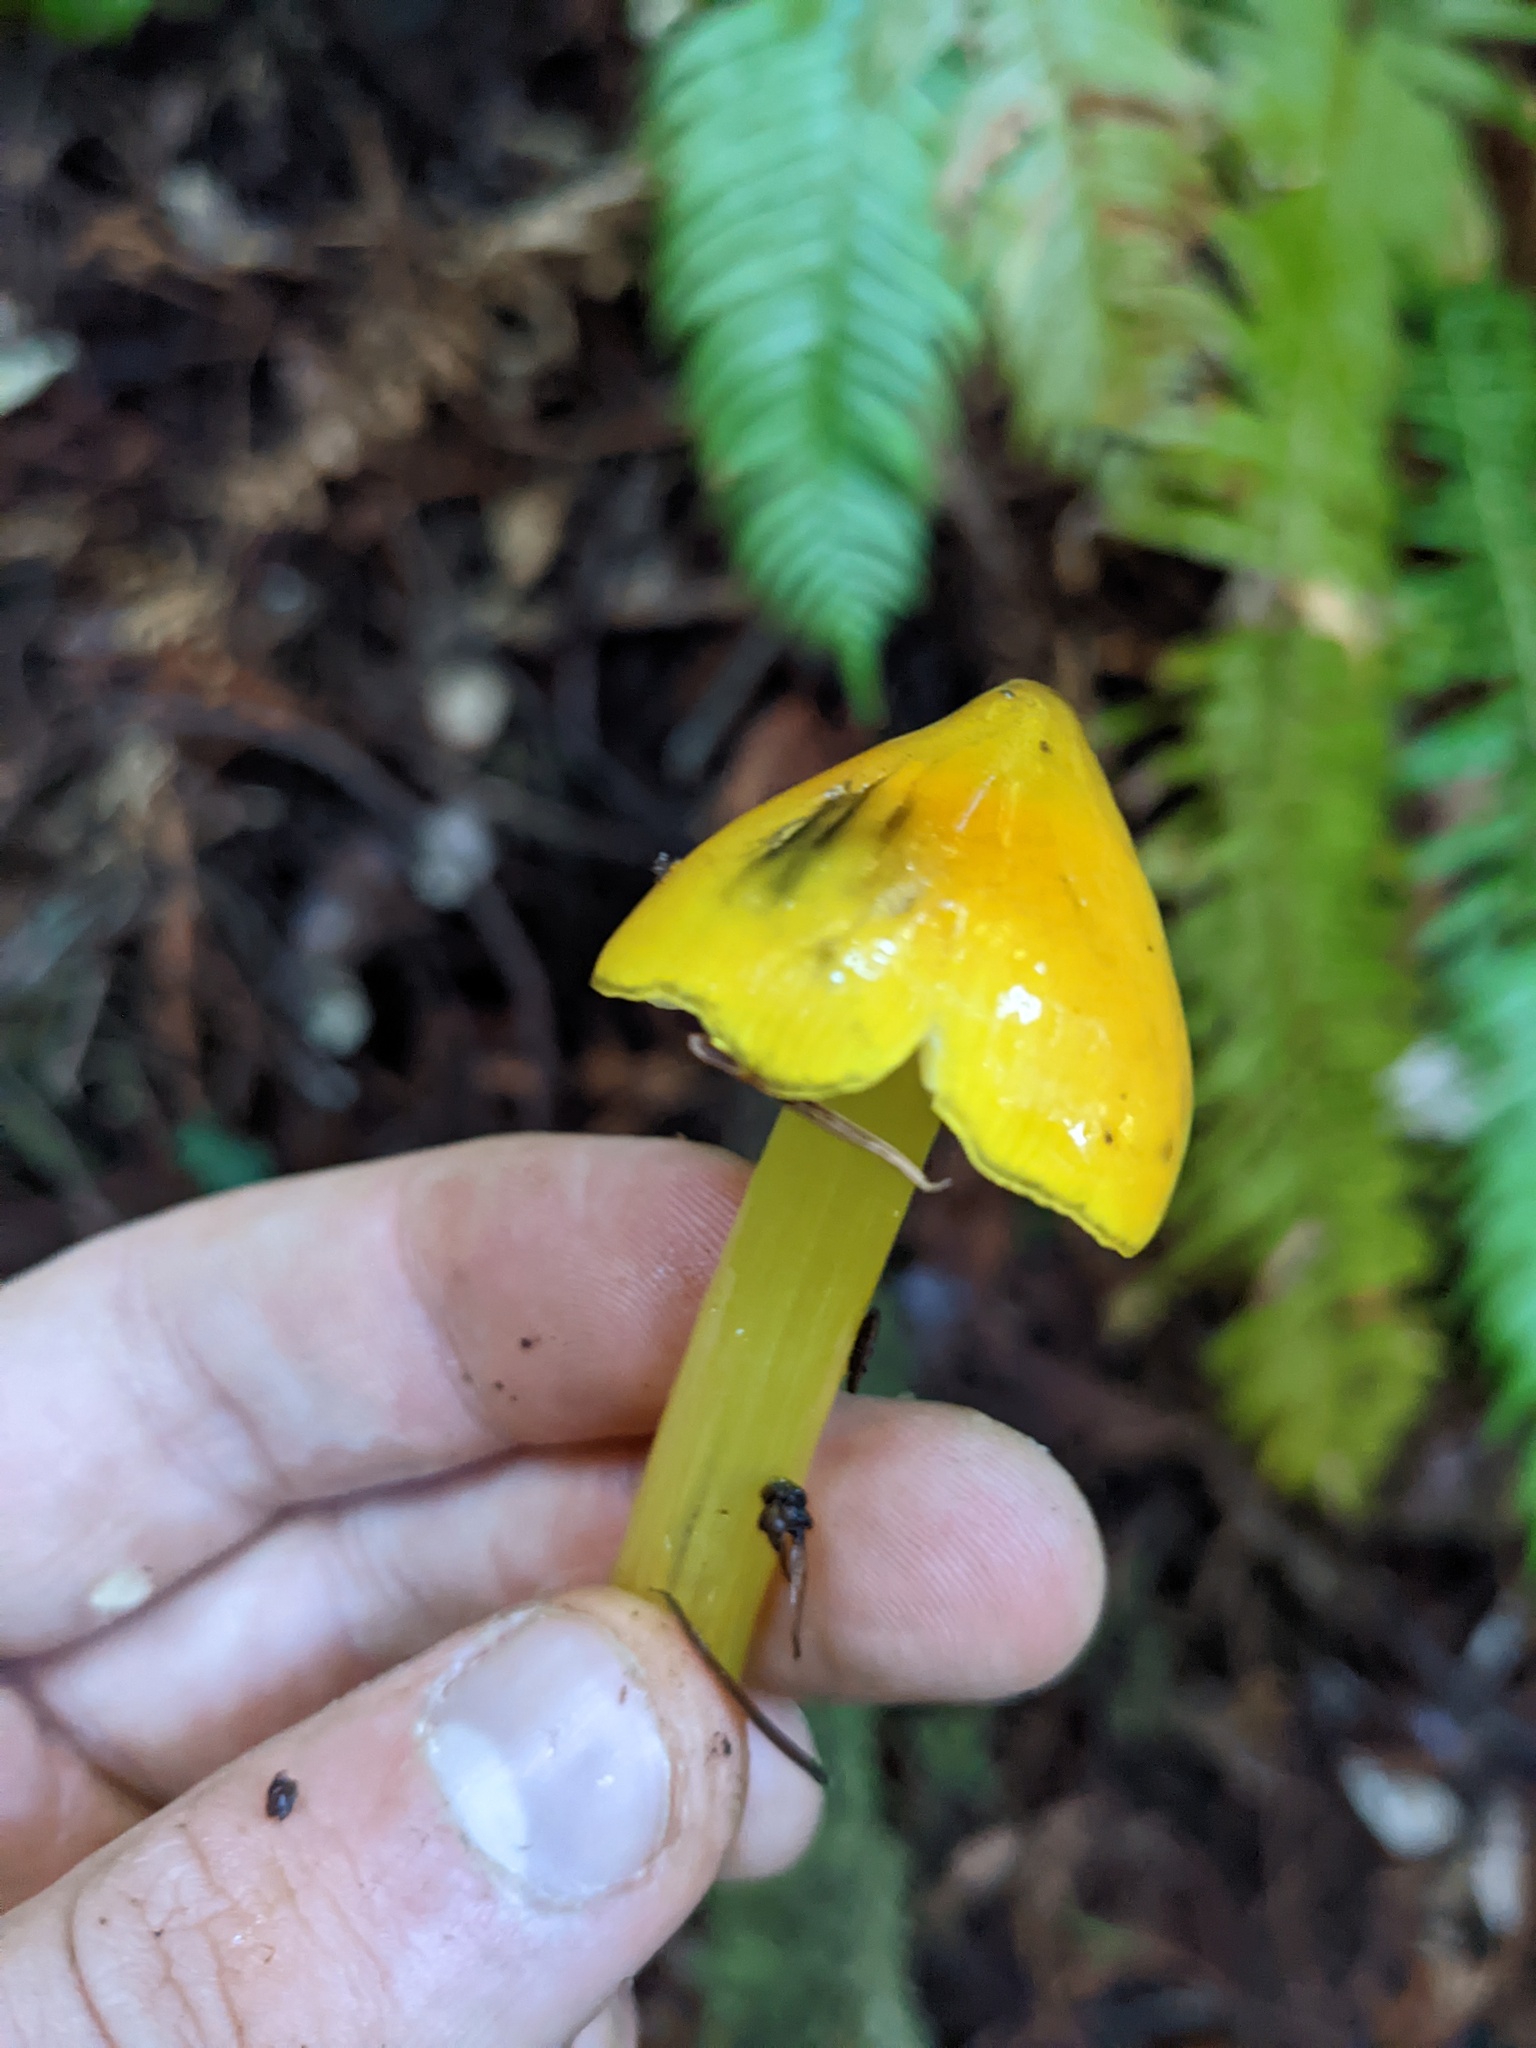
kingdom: Fungi
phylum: Basidiomycota
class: Agaricomycetes
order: Agaricales
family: Hygrophoraceae
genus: Hygrocybe
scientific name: Hygrocybe singeri
